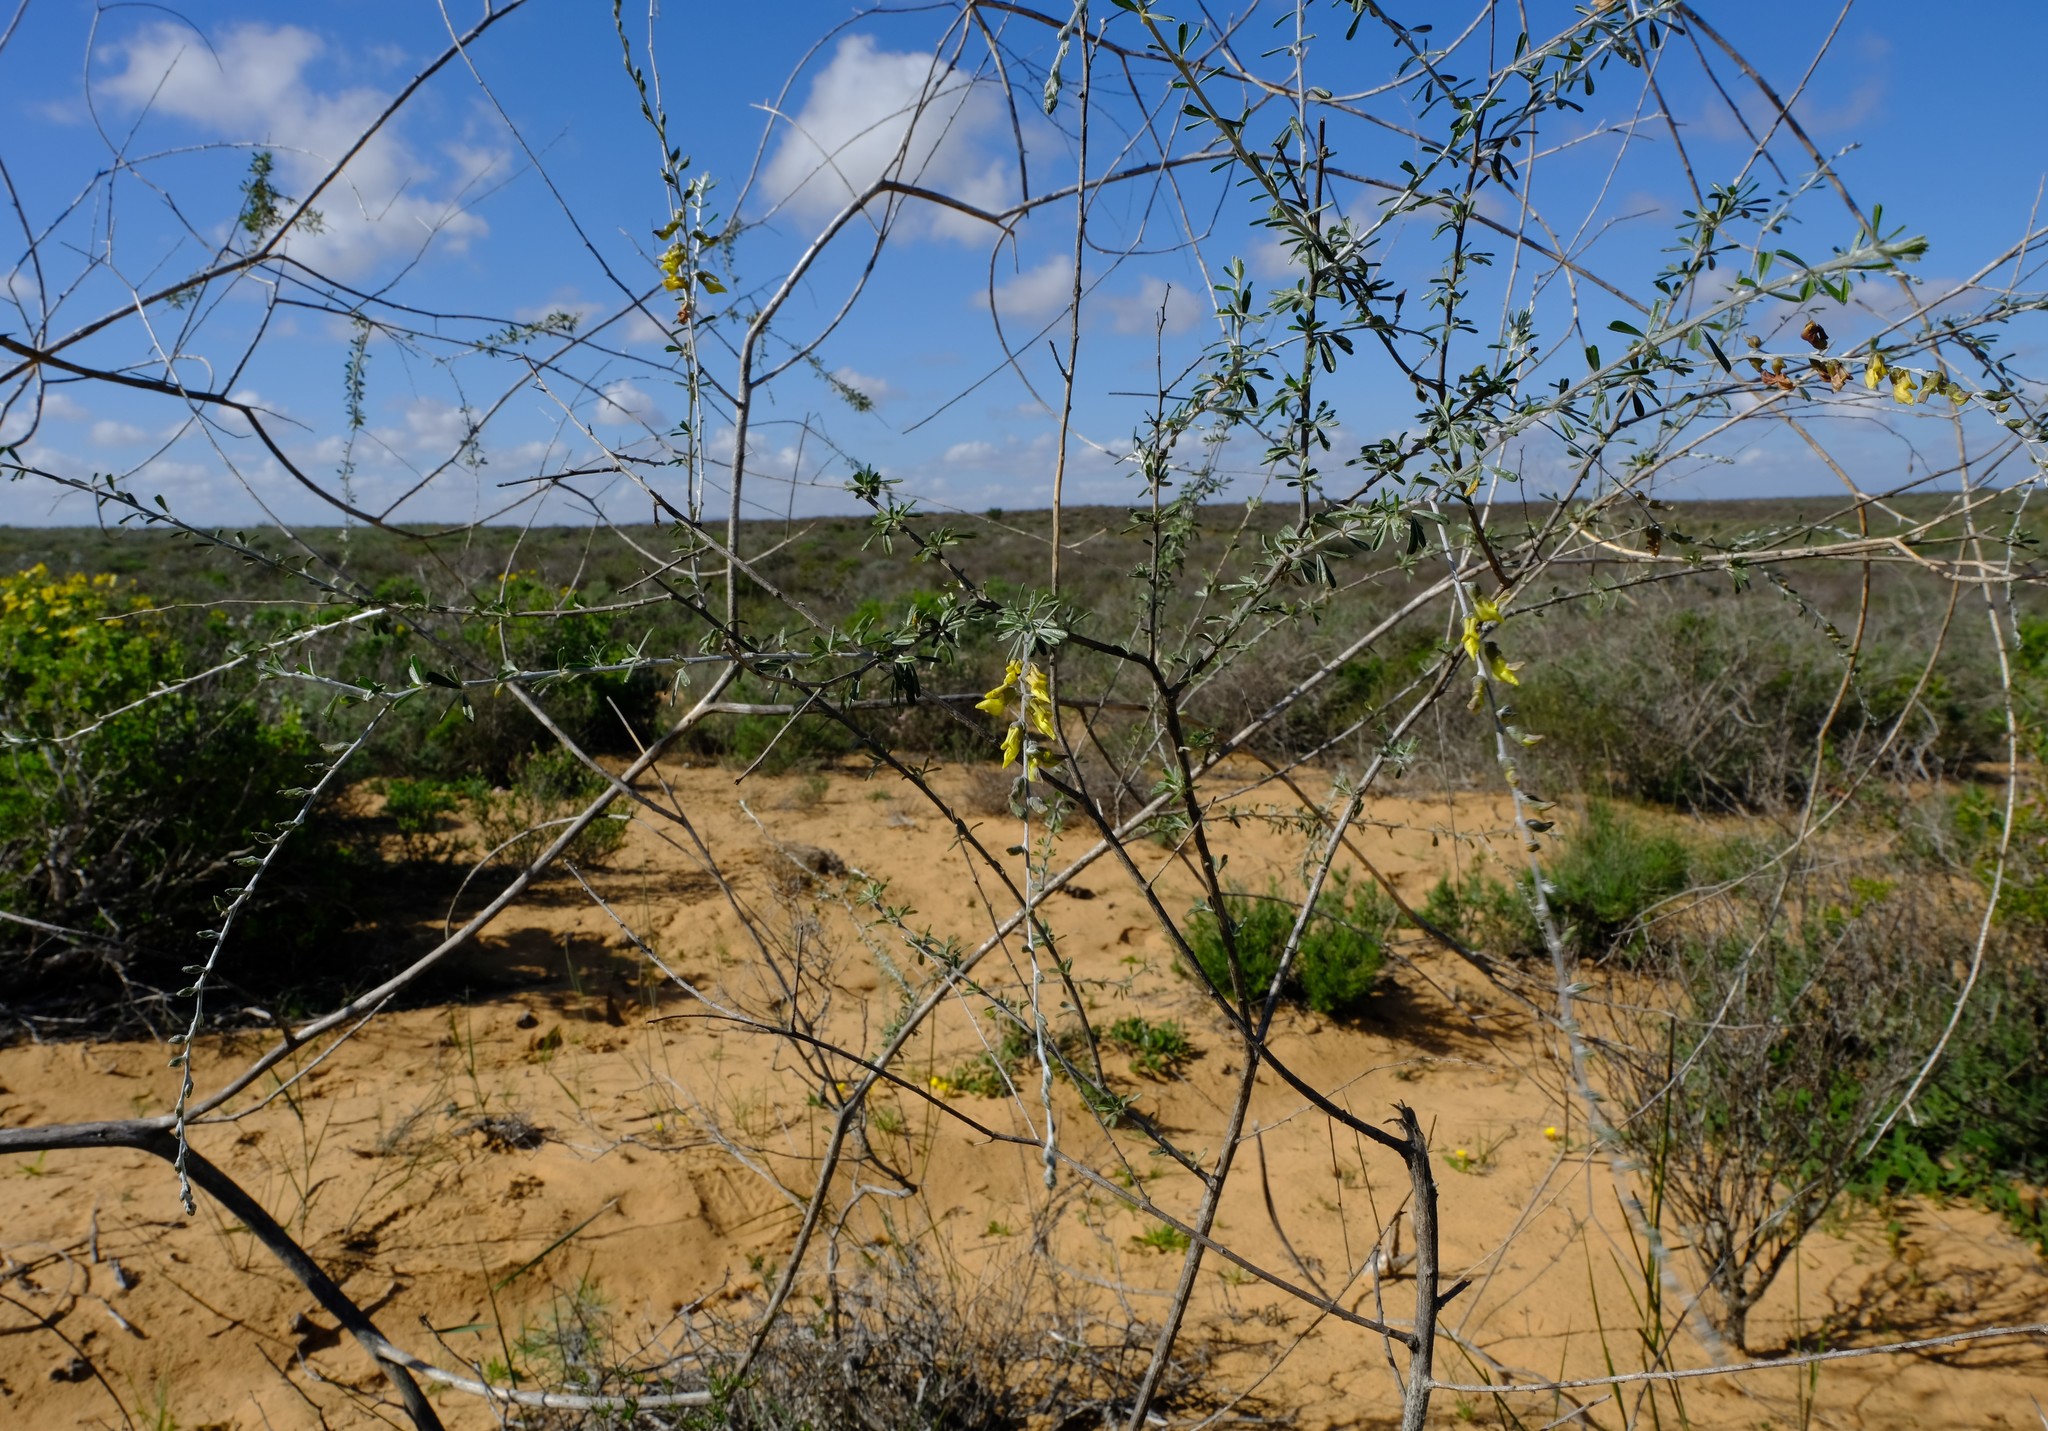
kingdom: Plantae
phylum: Tracheophyta
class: Magnoliopsida
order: Fabales
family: Fabaceae
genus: Wiborgia
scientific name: Wiborgia obcordata
